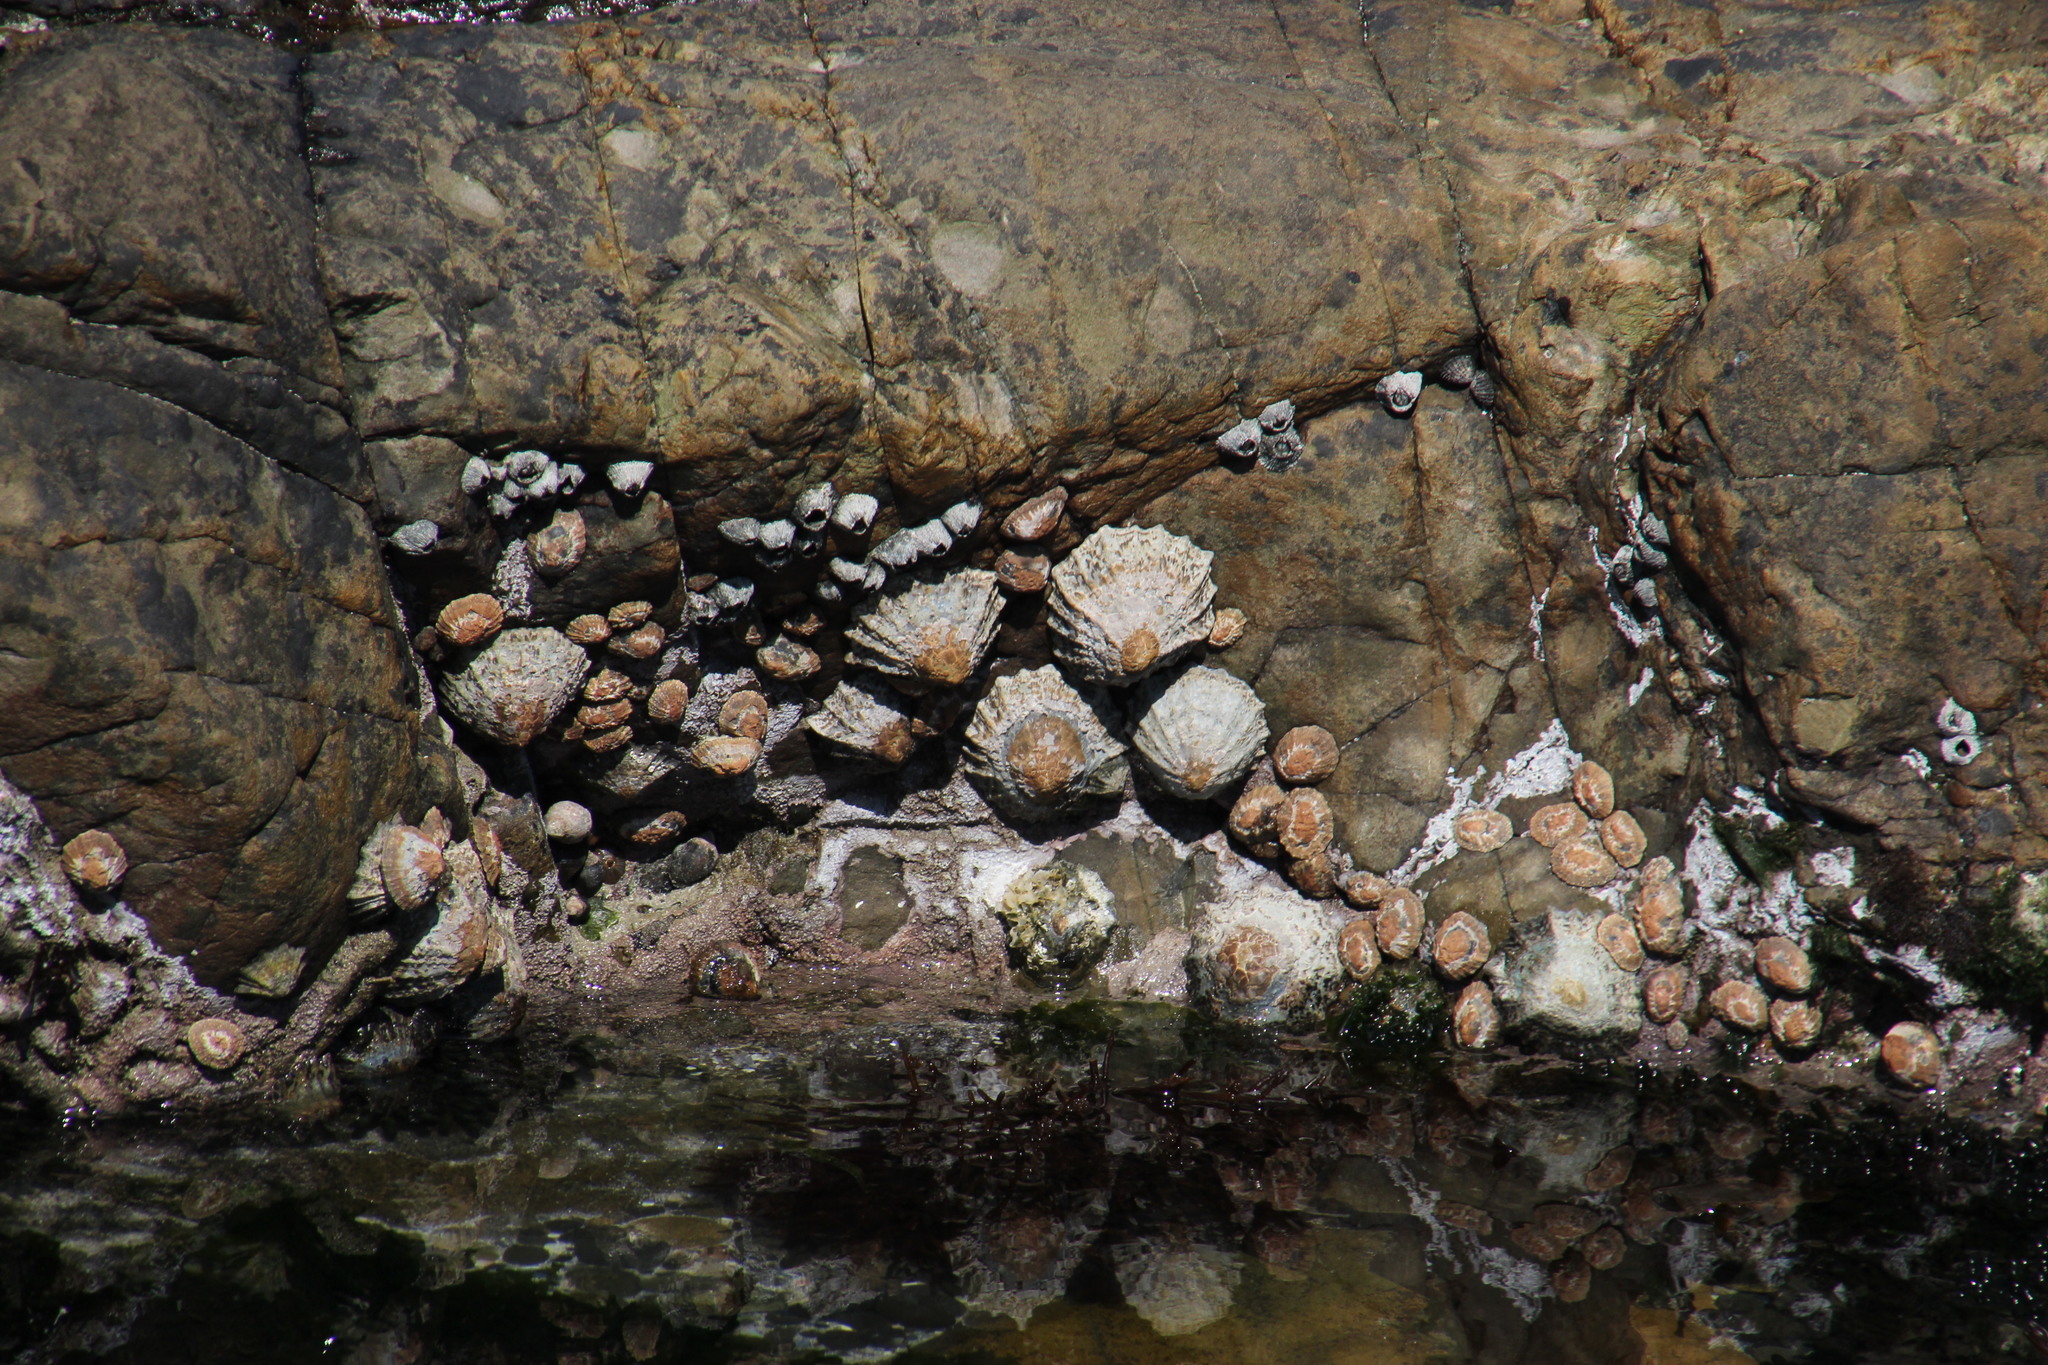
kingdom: Animalia
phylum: Mollusca
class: Gastropoda
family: Patellidae
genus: Scutellastra
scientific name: Scutellastra granularis
